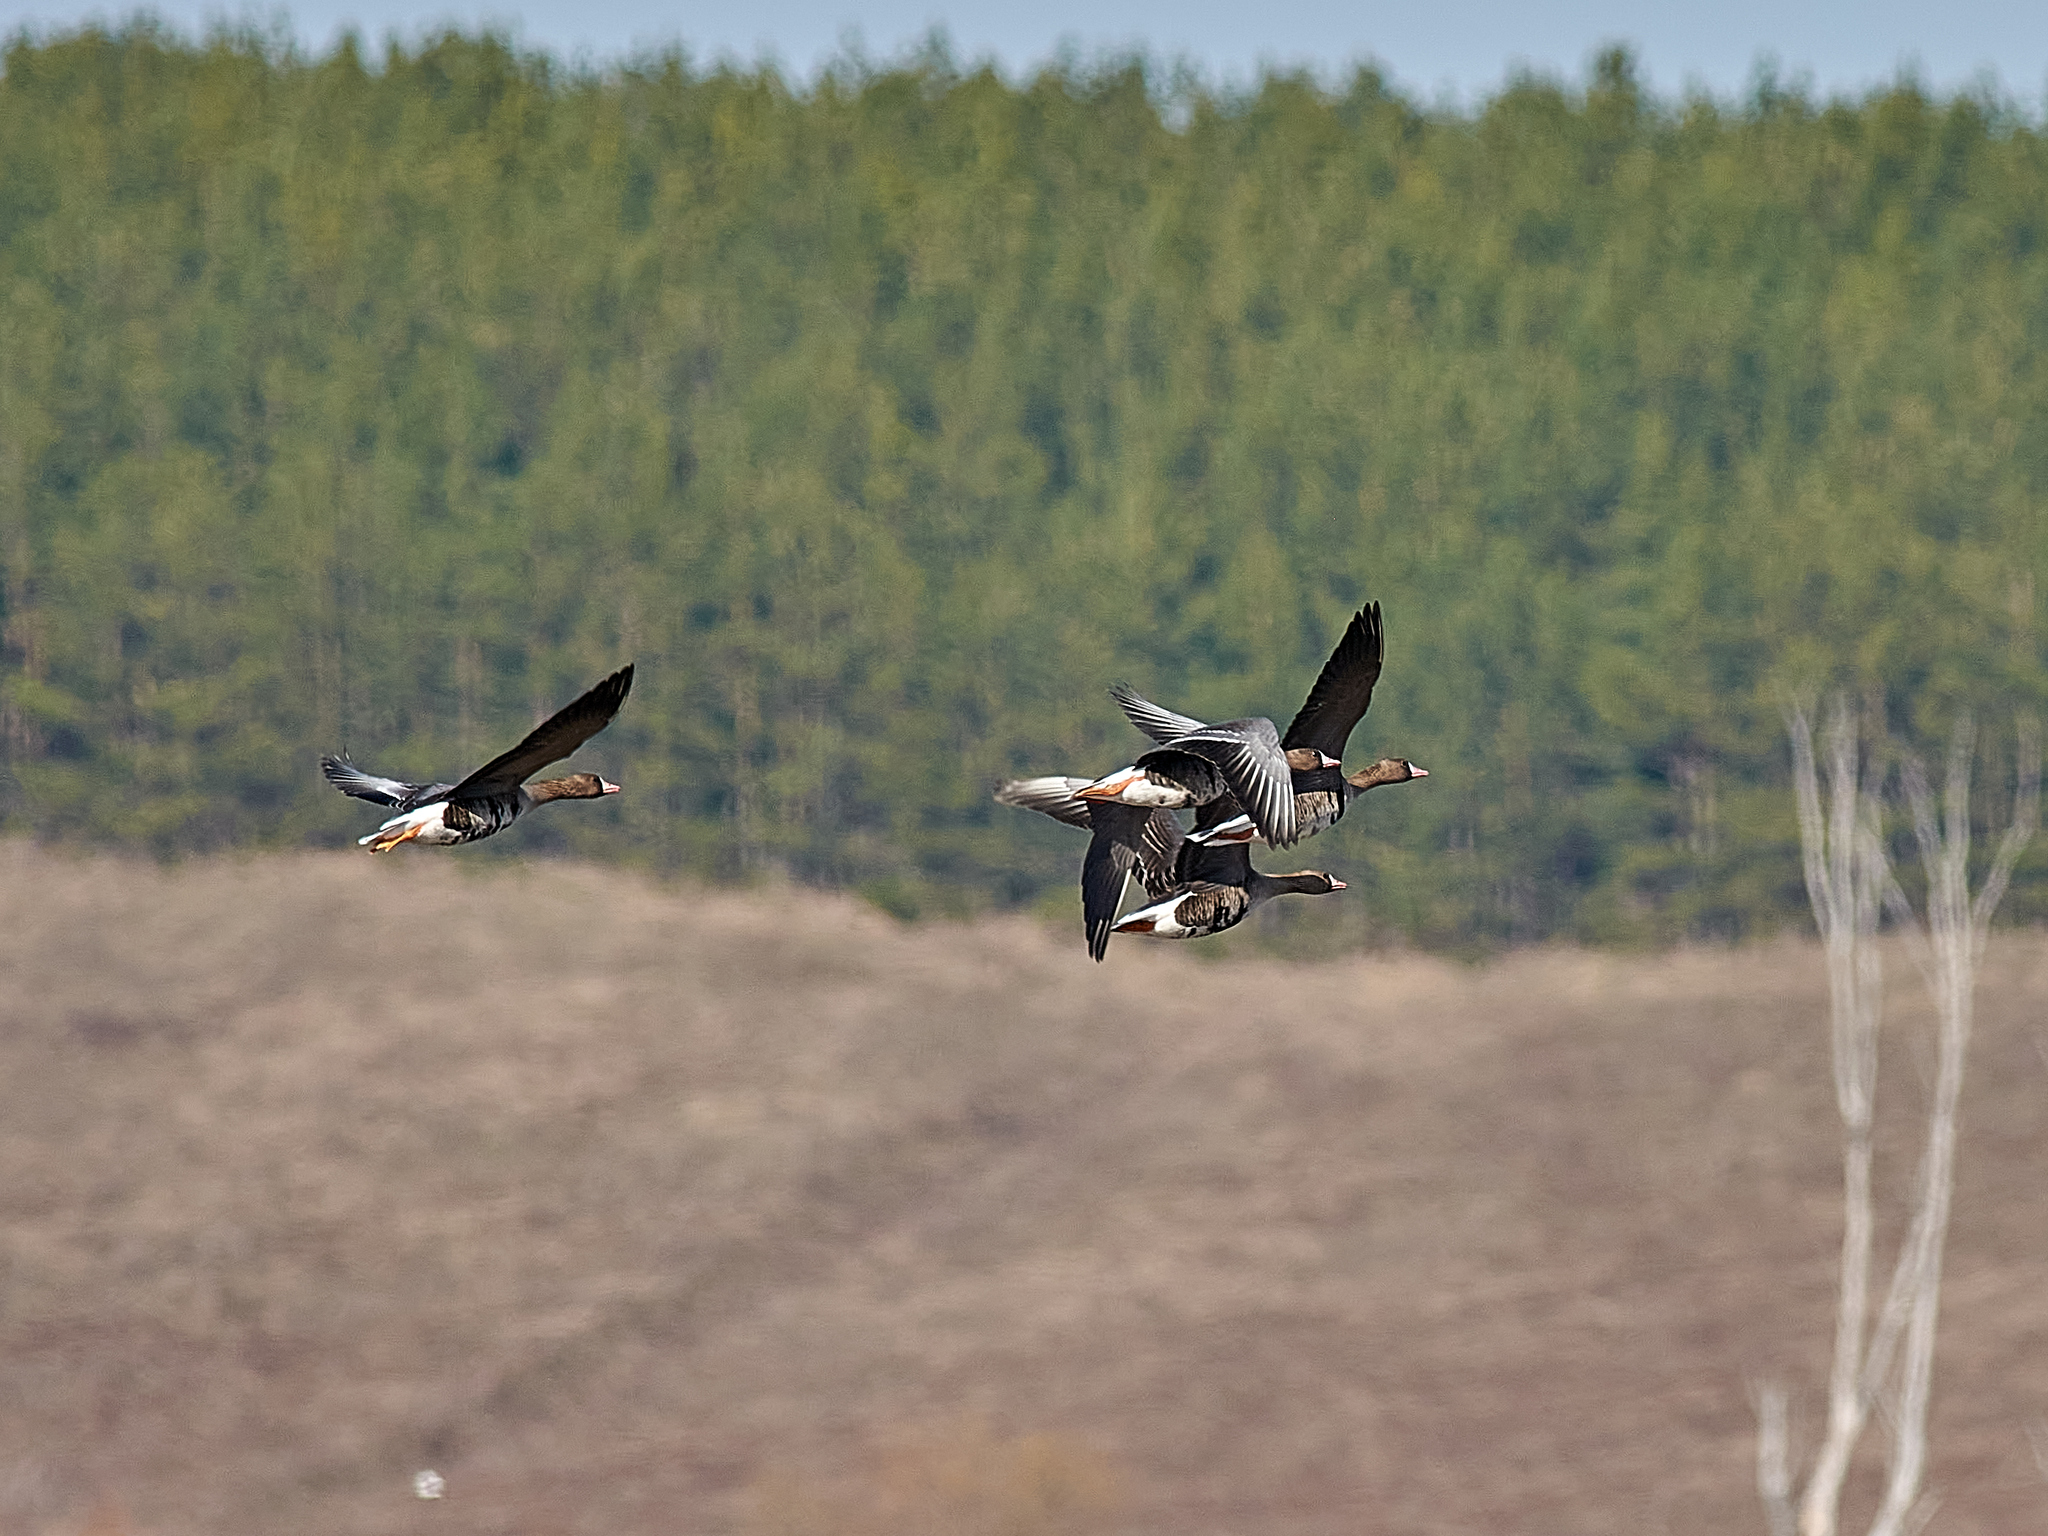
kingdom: Animalia
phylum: Chordata
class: Aves
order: Anseriformes
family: Anatidae
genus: Anser
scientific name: Anser albifrons
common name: Greater white-fronted goose
